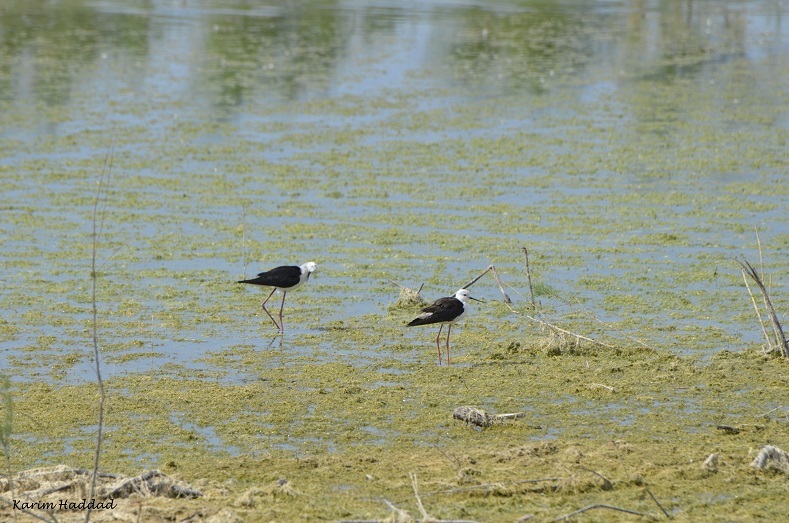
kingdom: Animalia
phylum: Chordata
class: Aves
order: Charadriiformes
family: Recurvirostridae
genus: Himantopus
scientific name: Himantopus himantopus
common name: Black-winged stilt
